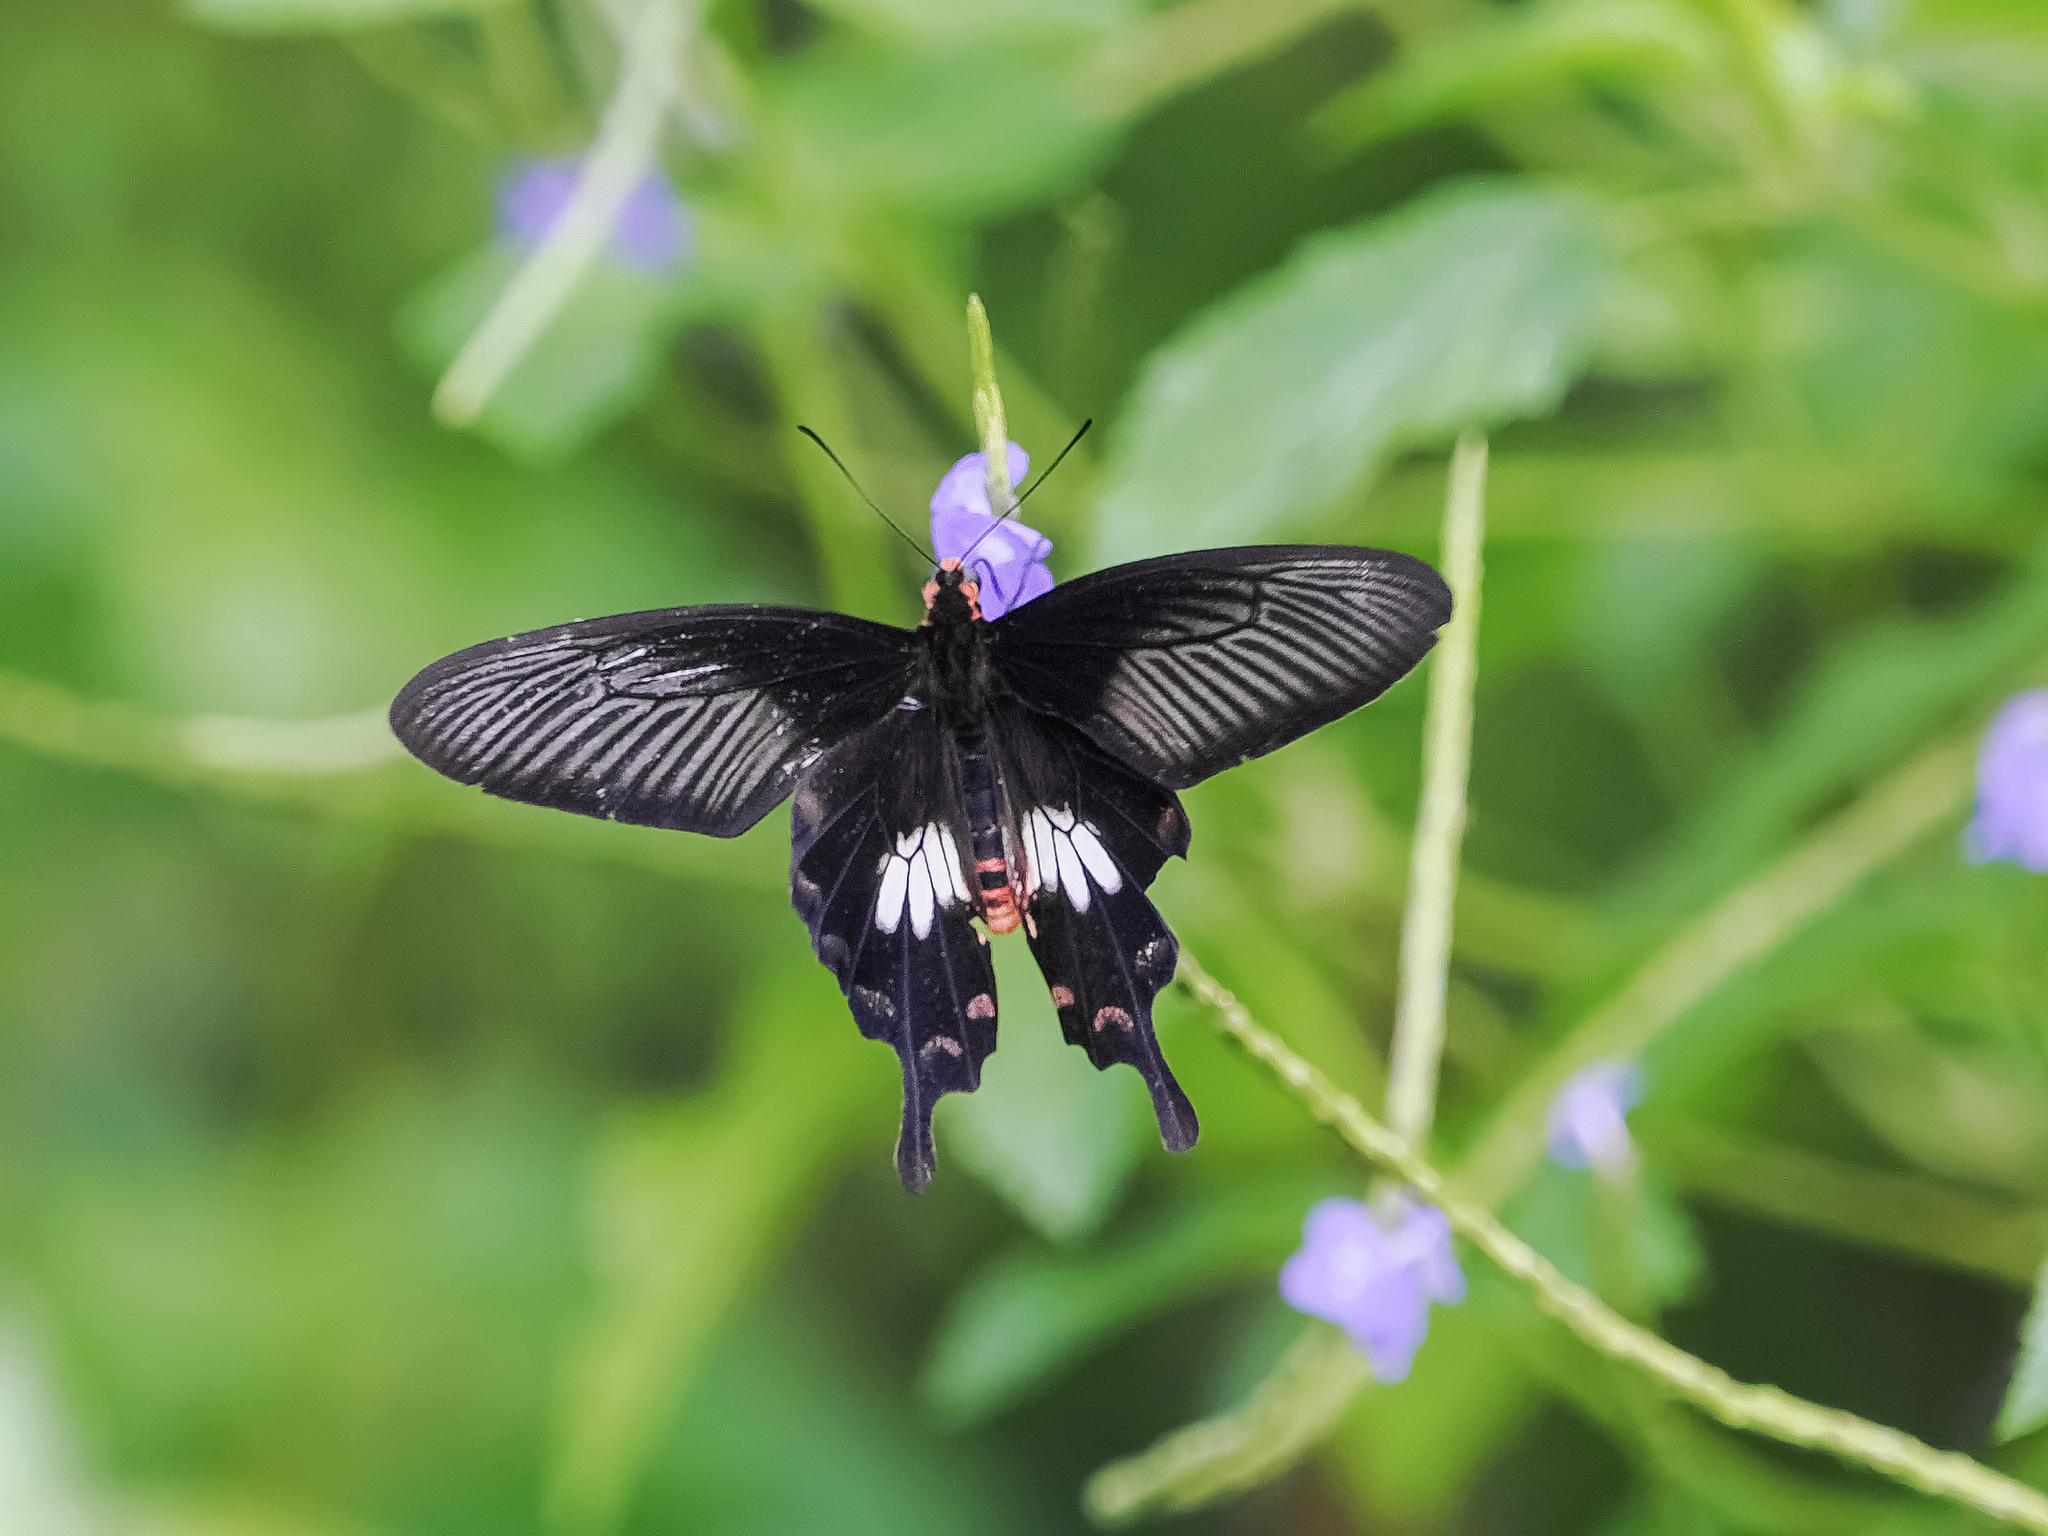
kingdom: Animalia
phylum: Arthropoda
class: Insecta
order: Lepidoptera
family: Papilionidae
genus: Pachliopta
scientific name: Pachliopta aristolochiae
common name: Common rose
